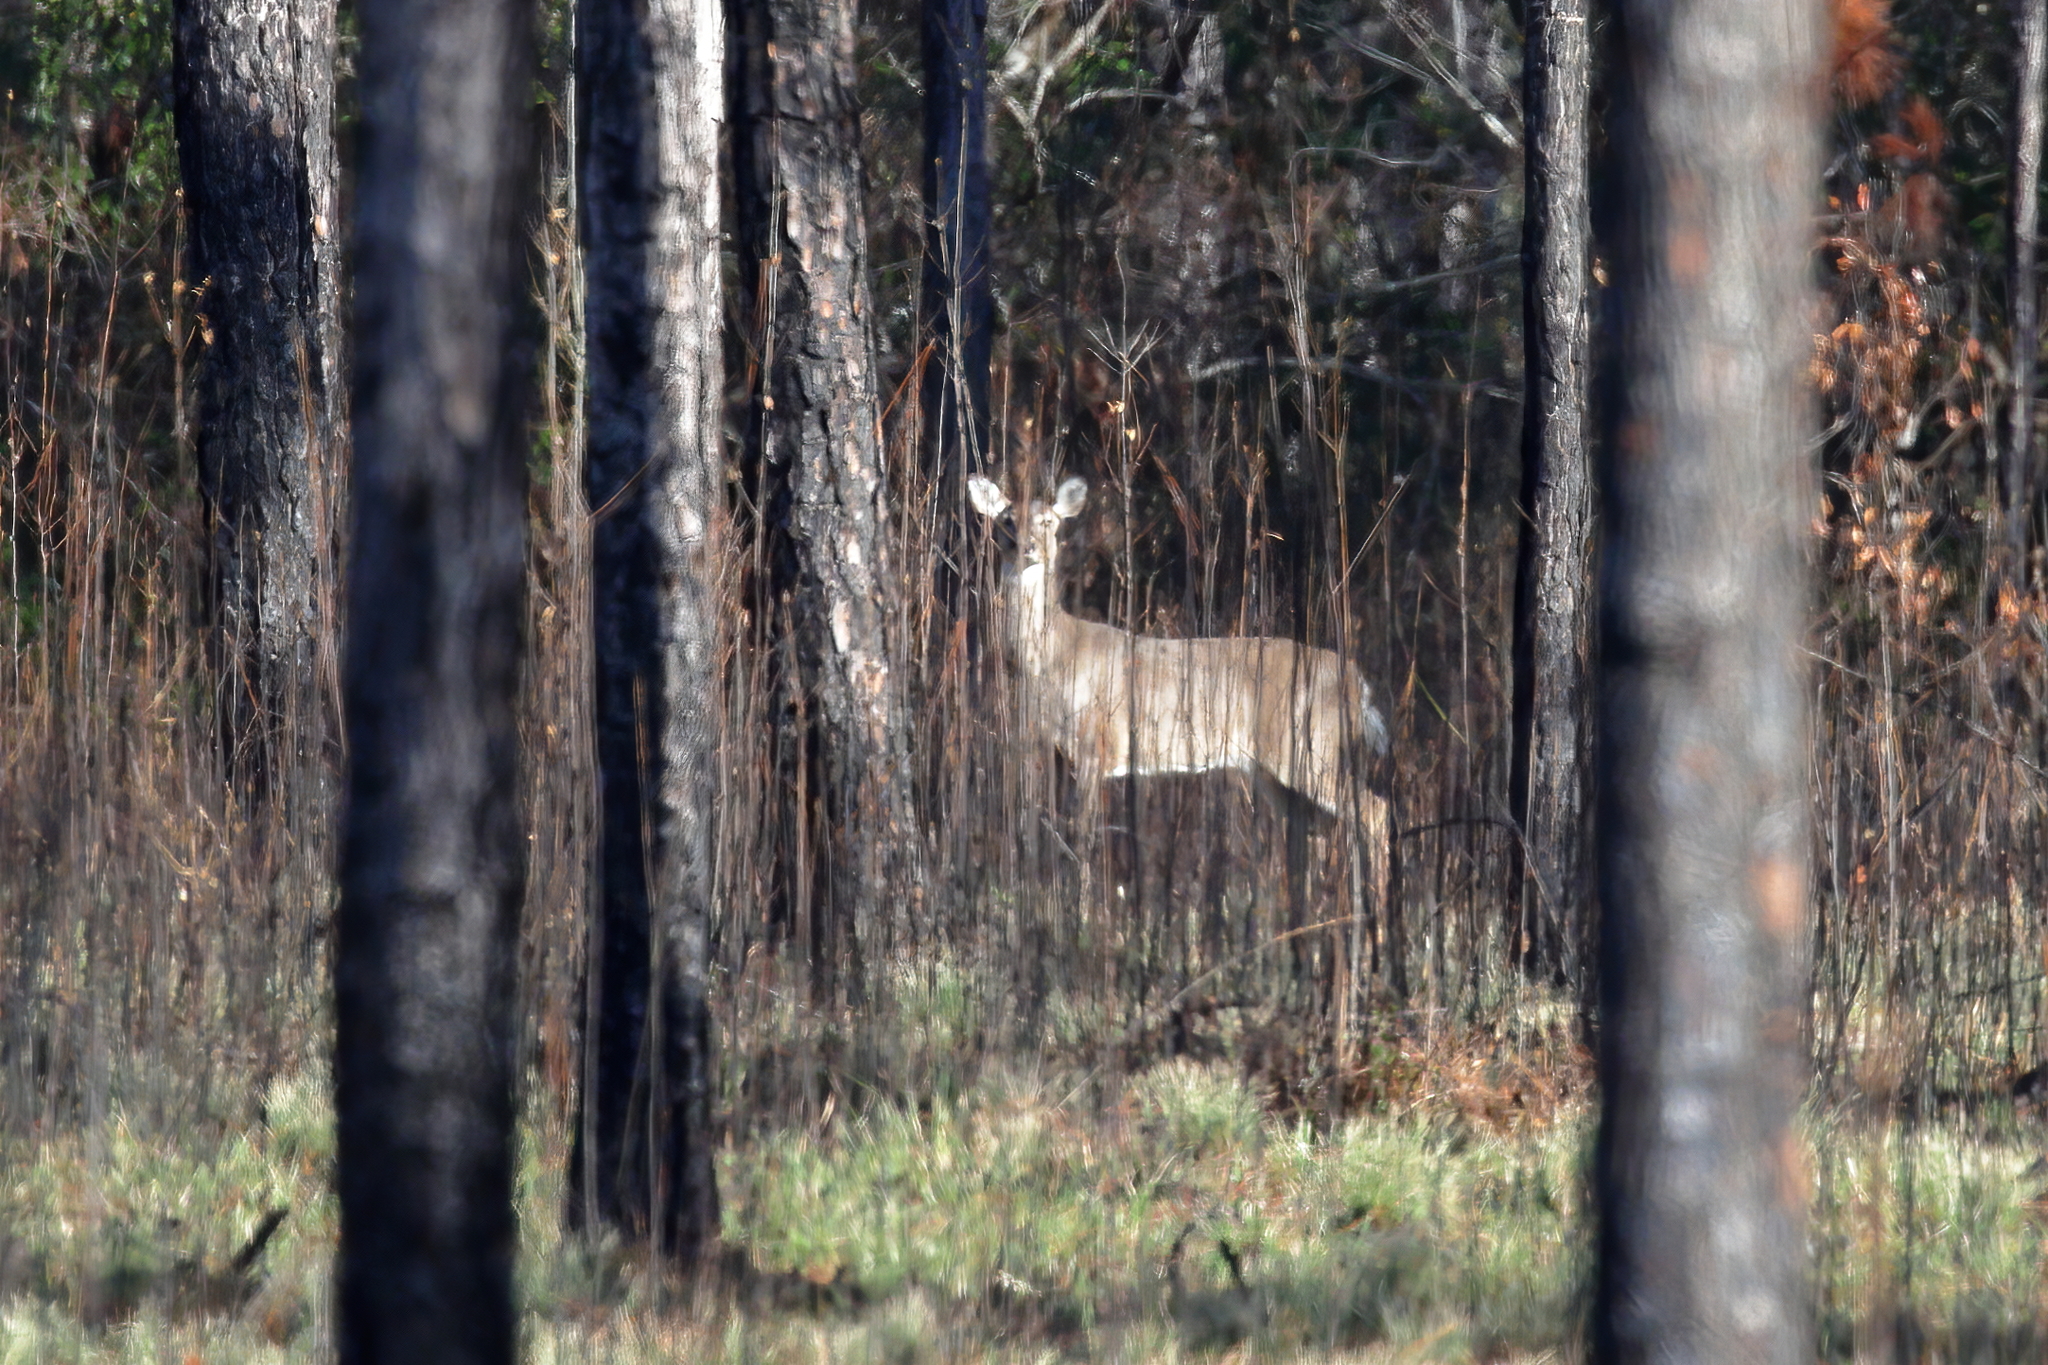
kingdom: Animalia
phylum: Chordata
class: Mammalia
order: Artiodactyla
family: Cervidae
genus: Odocoileus
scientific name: Odocoileus virginianus
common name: White-tailed deer
